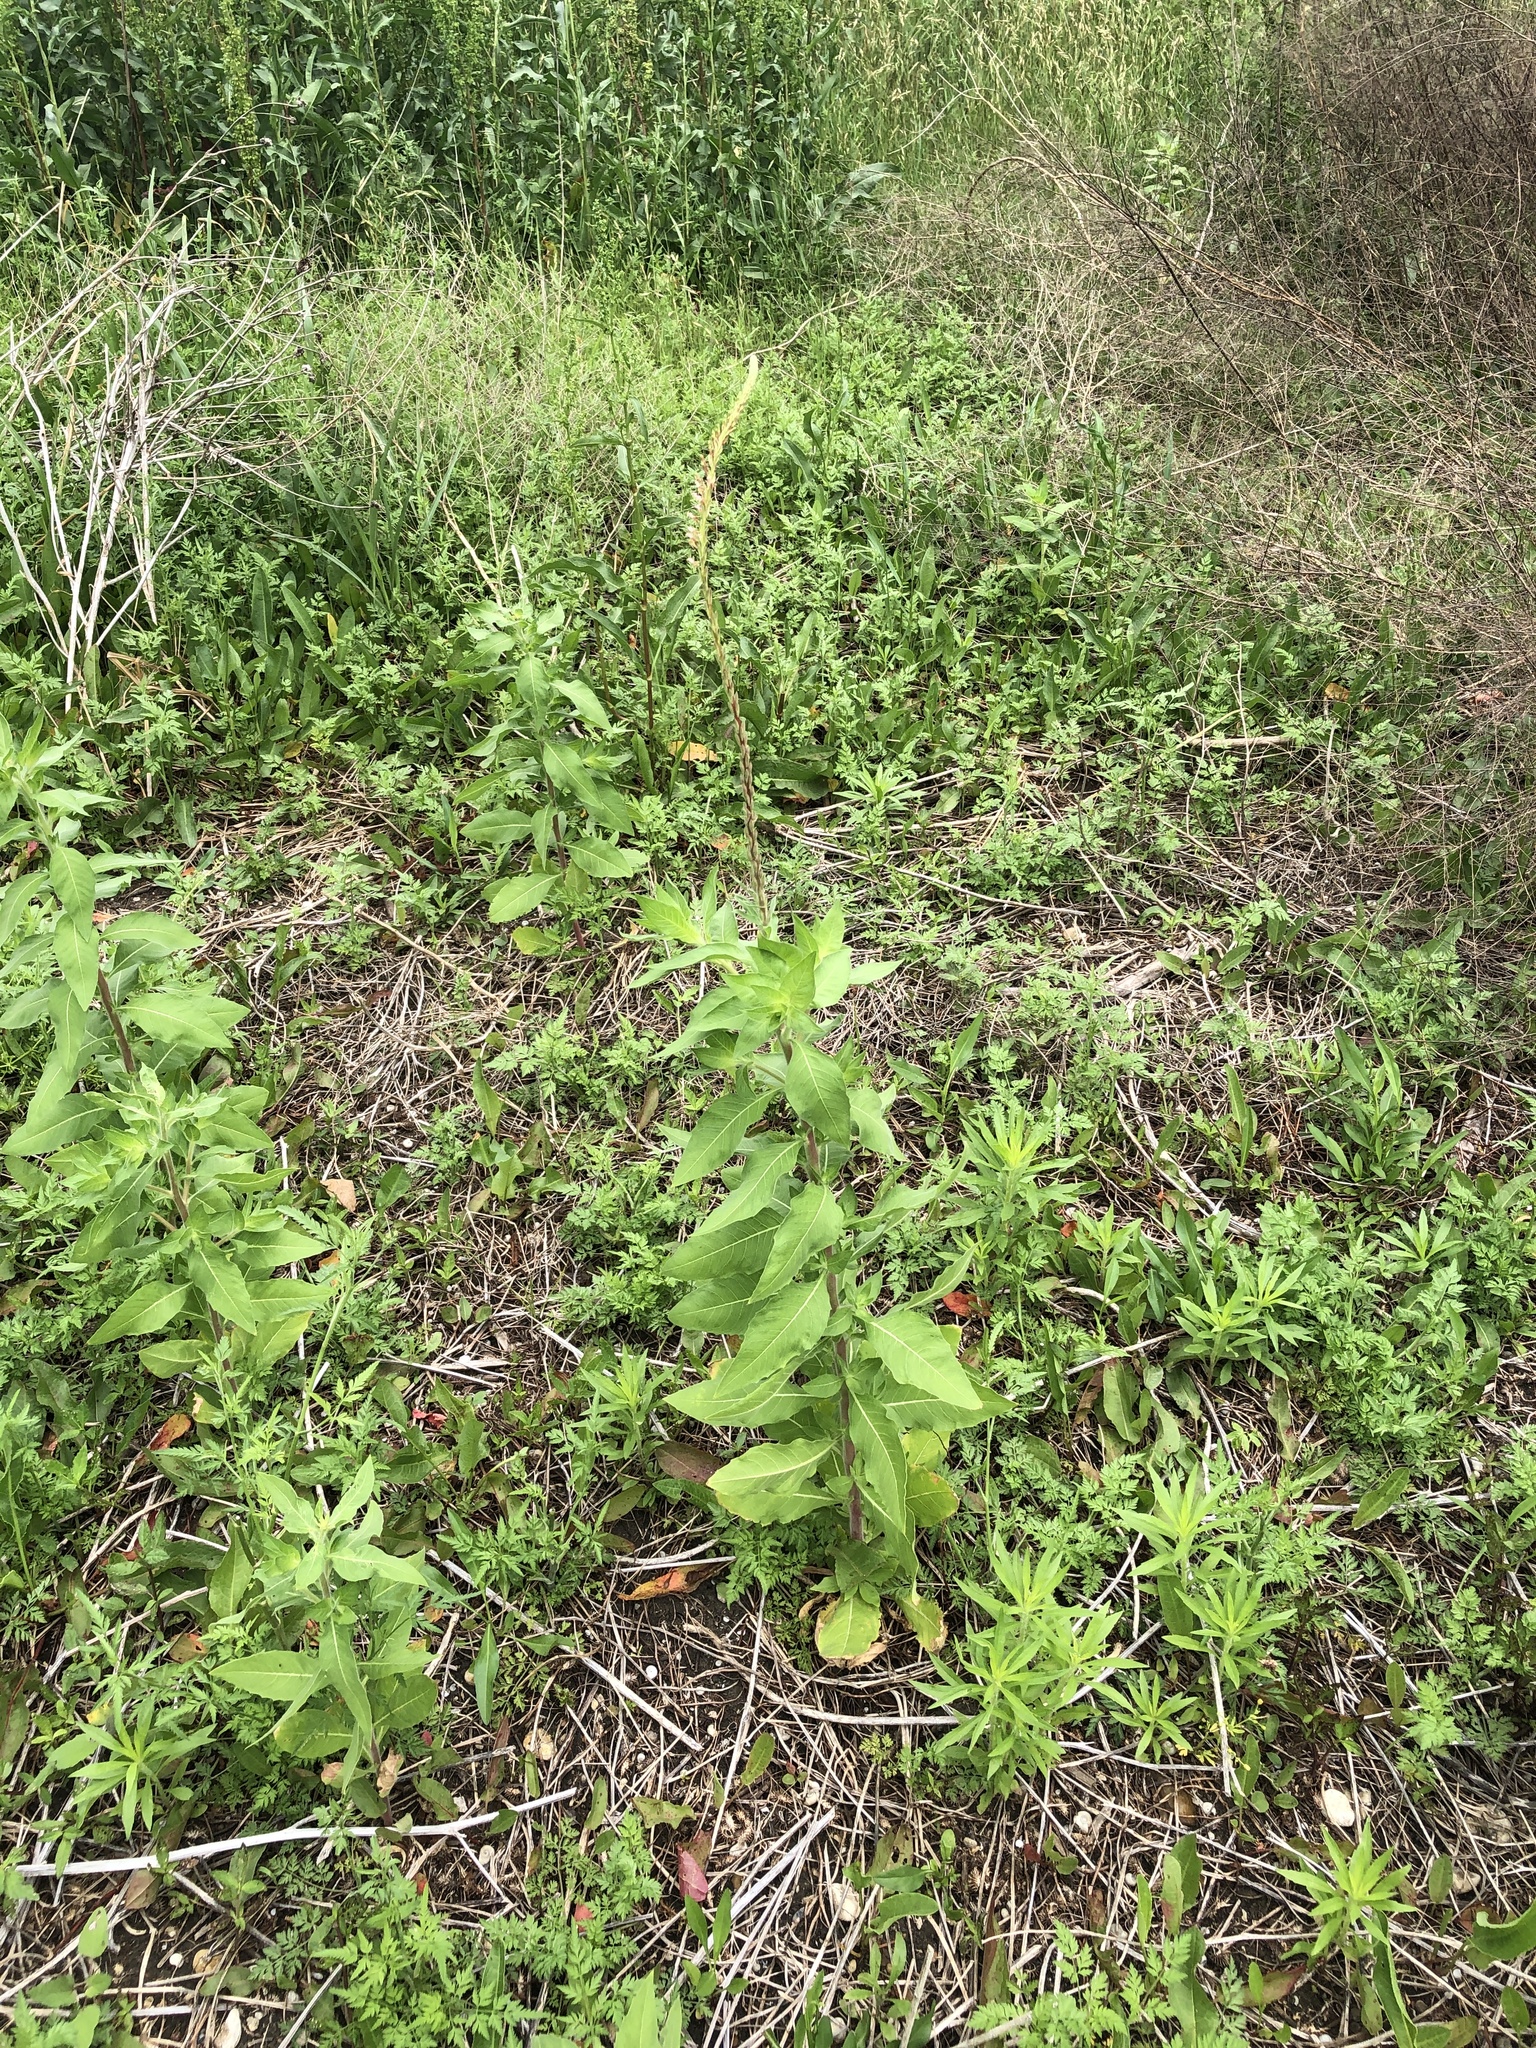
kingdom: Plantae
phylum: Tracheophyta
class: Magnoliopsida
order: Myrtales
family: Onagraceae
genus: Oenothera
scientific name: Oenothera curtiflora
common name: Velvetweed
